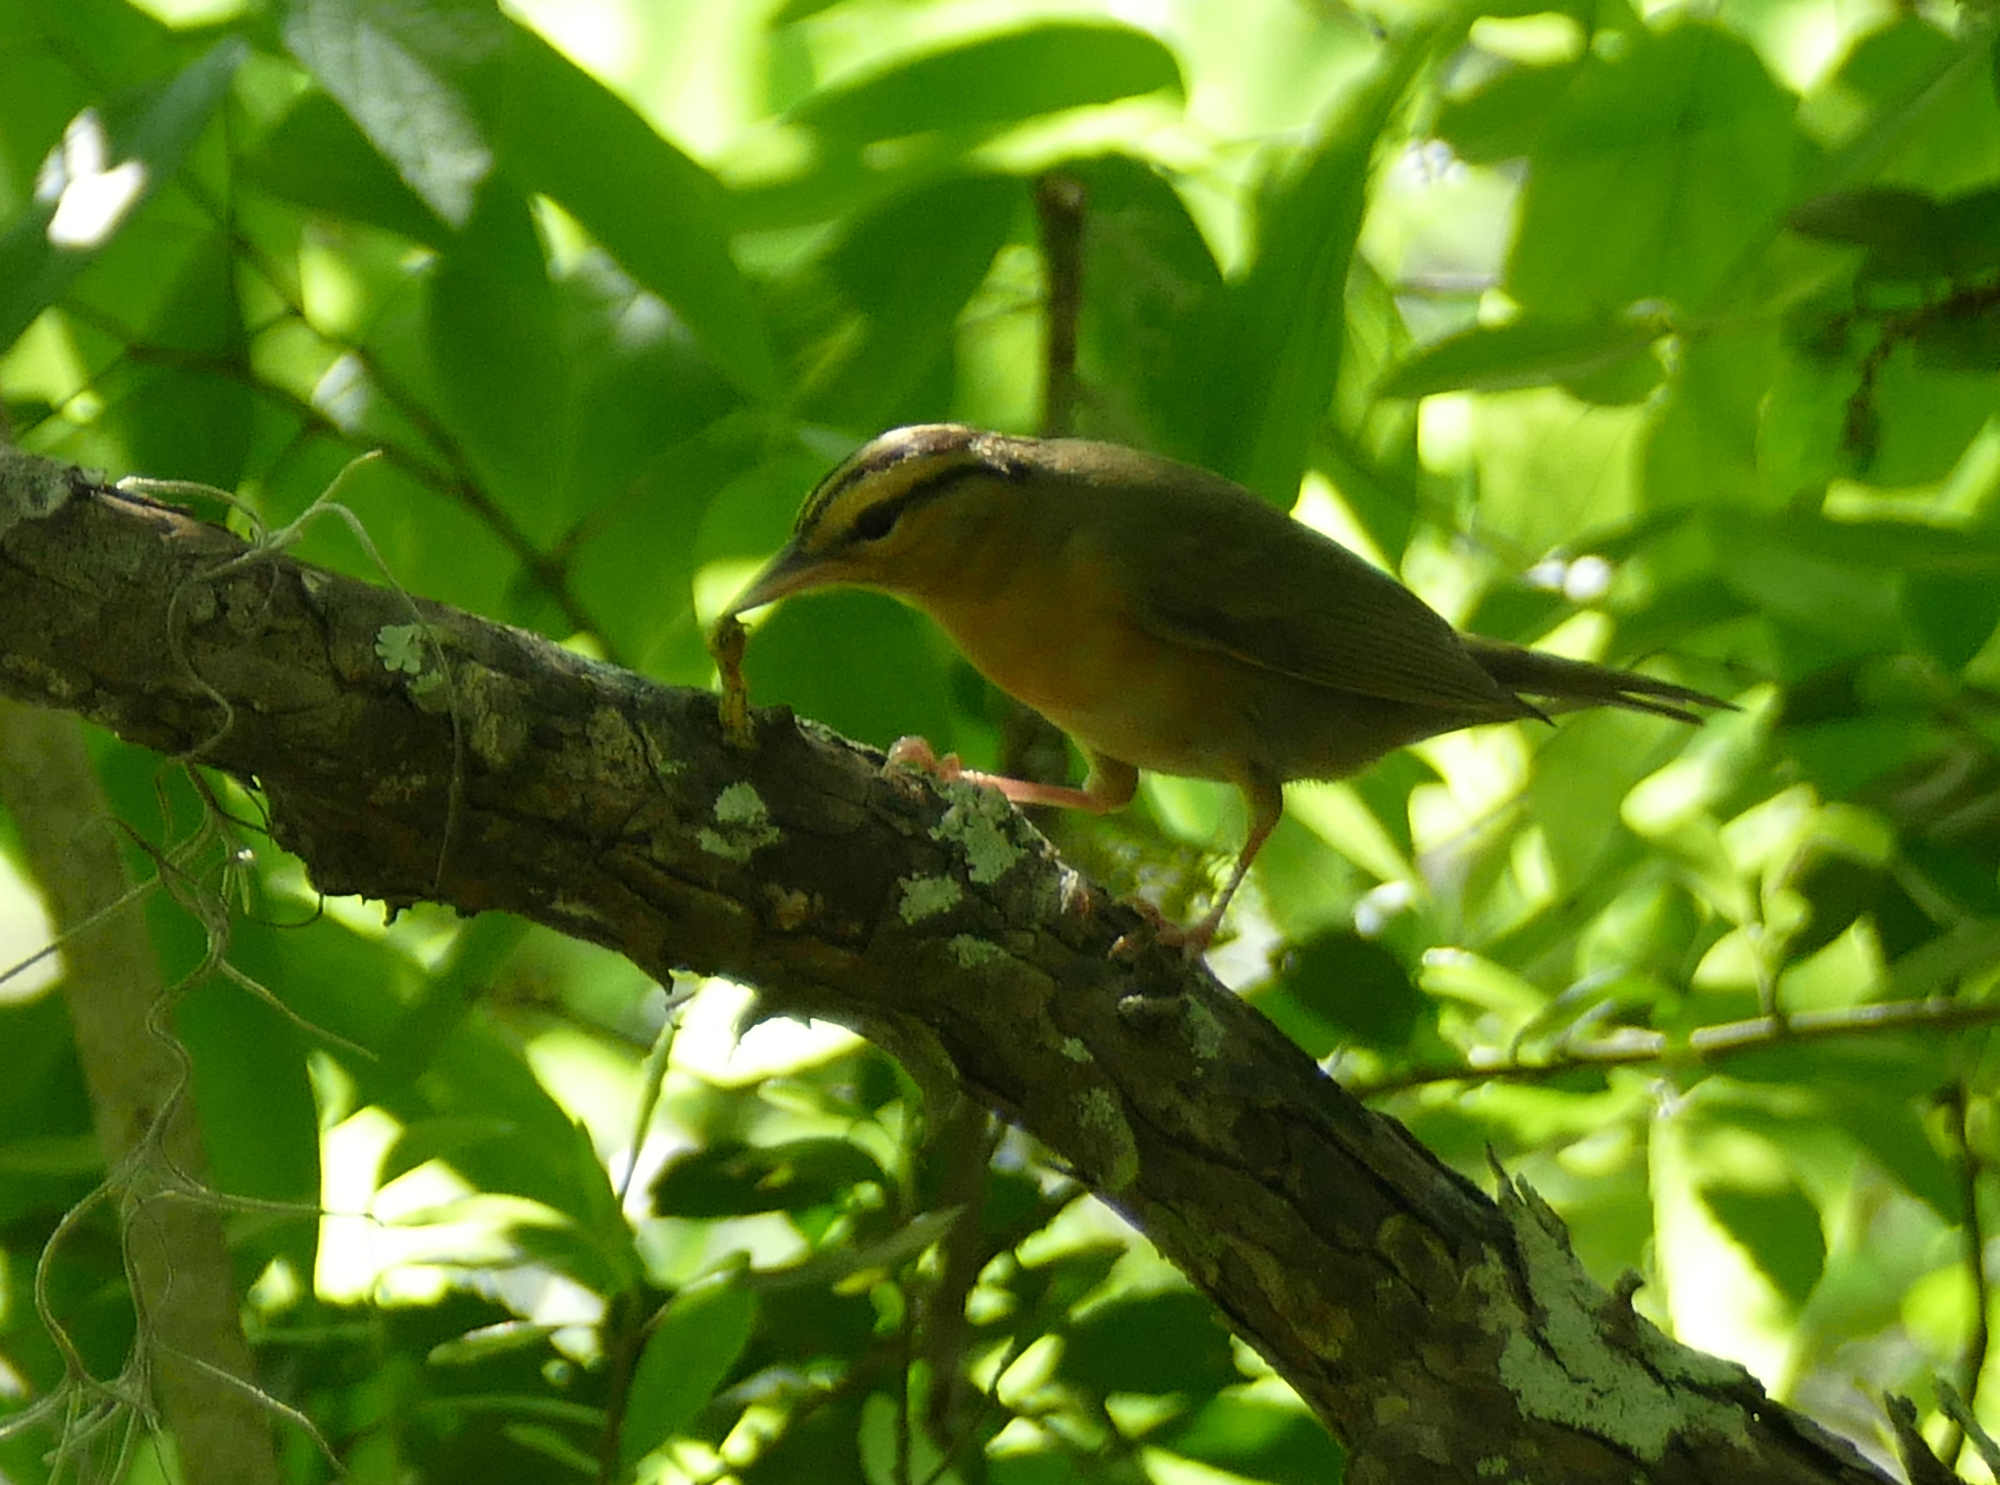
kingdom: Animalia
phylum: Chordata
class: Aves
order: Passeriformes
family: Parulidae
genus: Helmitheros
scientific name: Helmitheros vermivorum
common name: Worm-eating warbler
